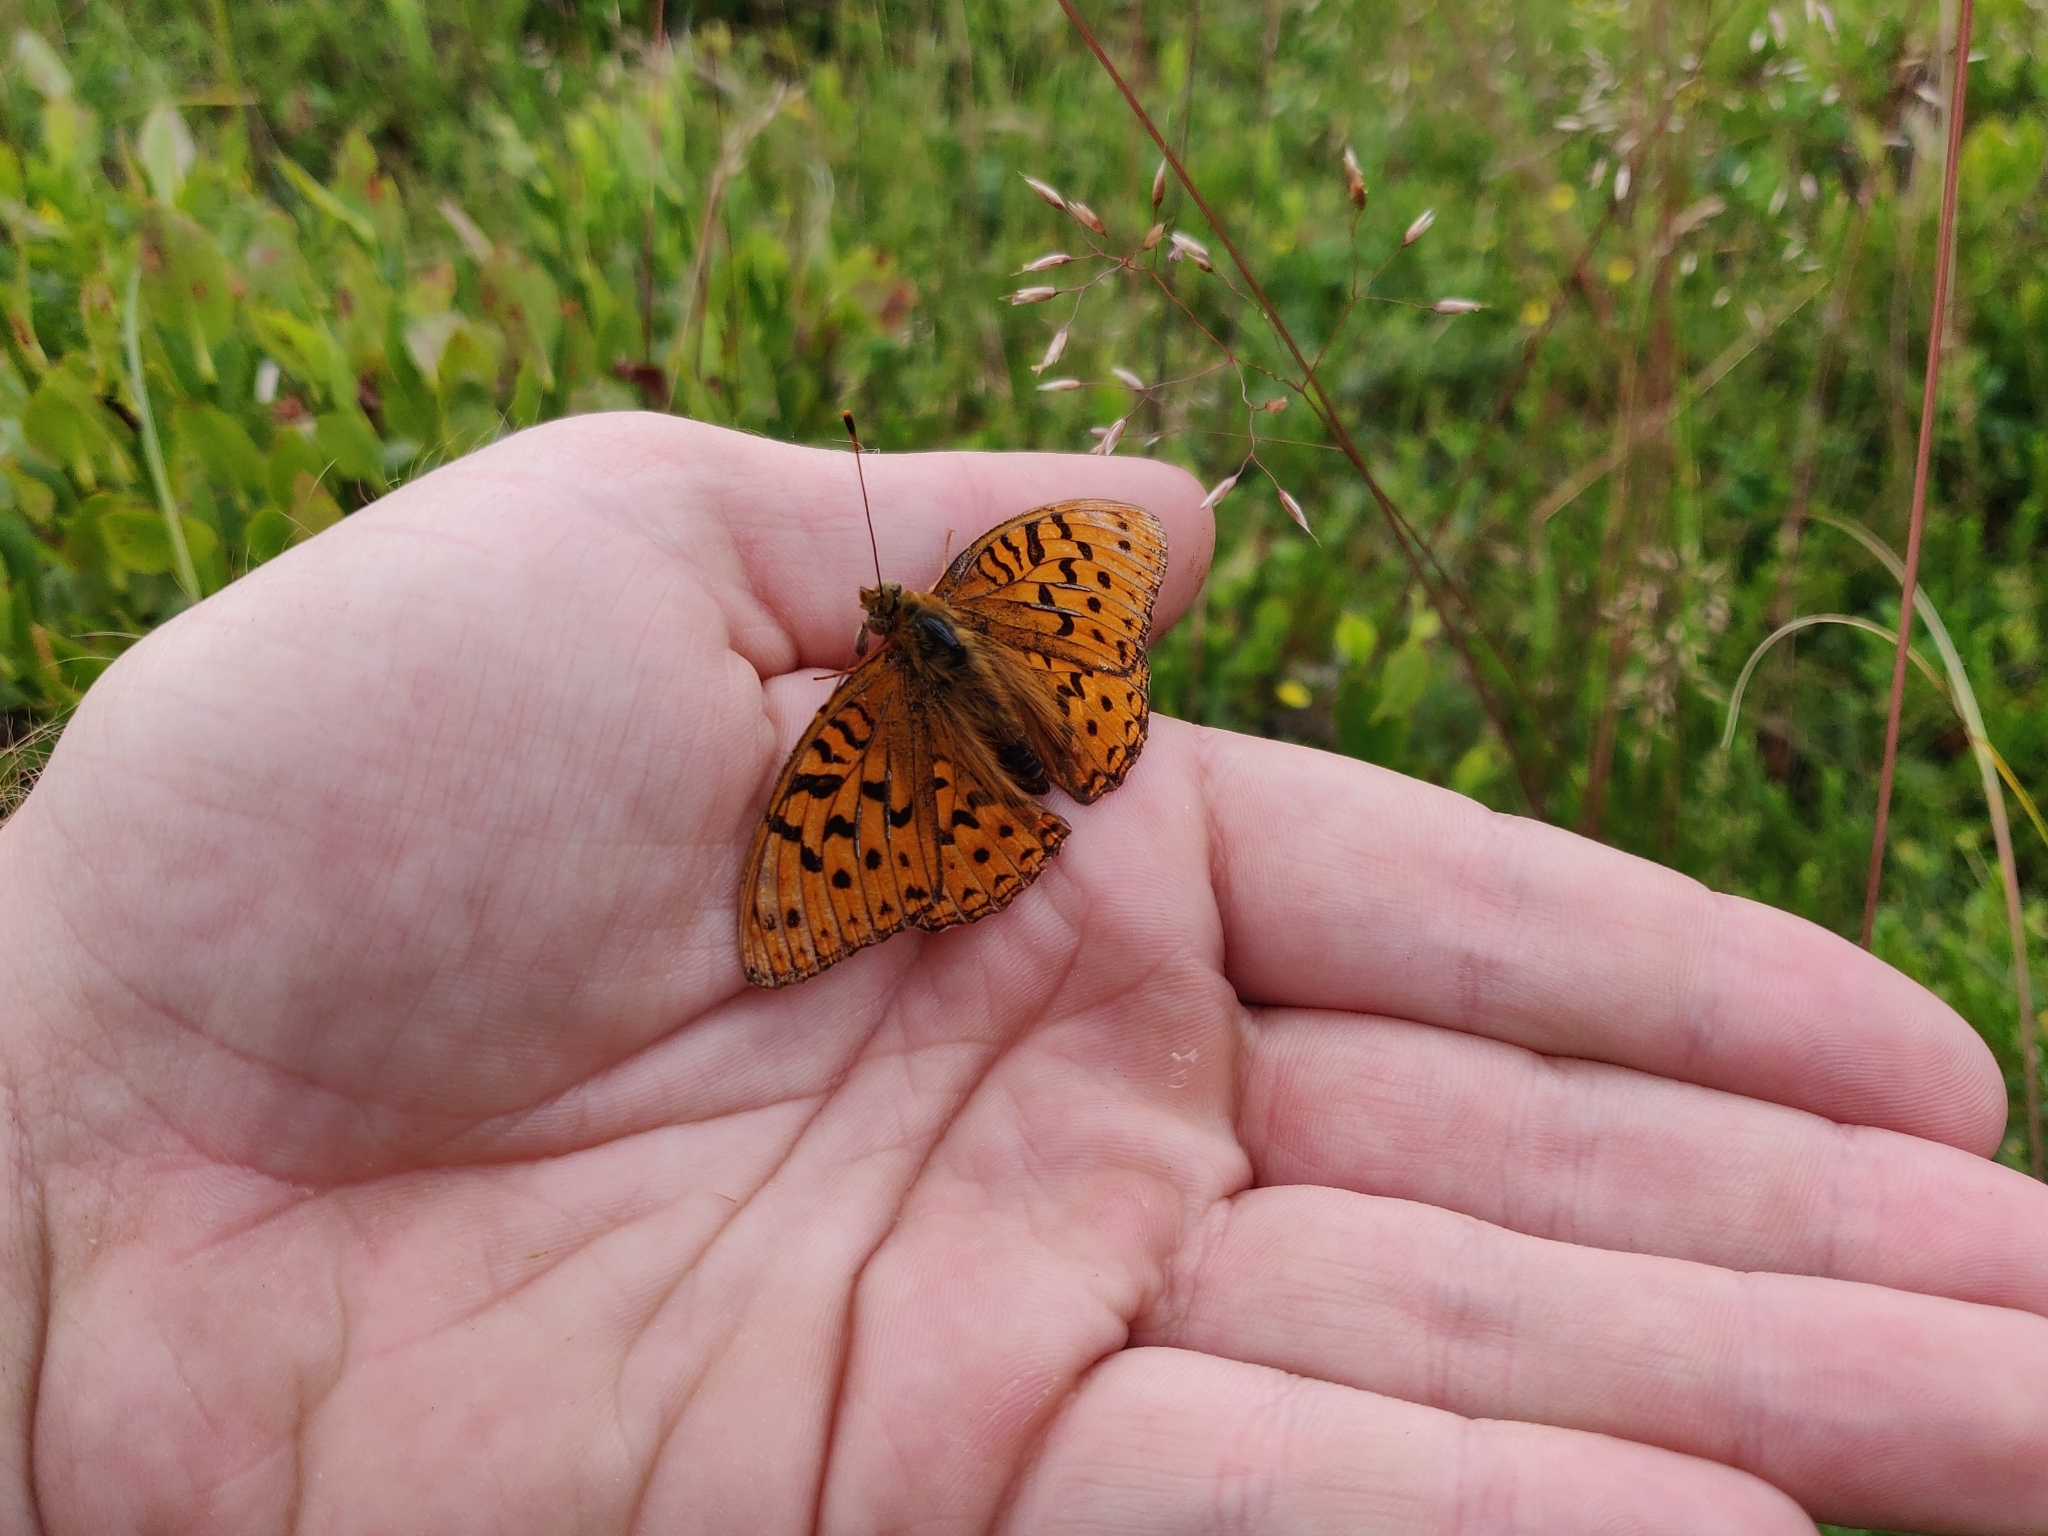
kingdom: Animalia
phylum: Arthropoda
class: Insecta
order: Lepidoptera
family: Nymphalidae
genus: Fabriciana
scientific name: Fabriciana adippe
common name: High brown fritillary
